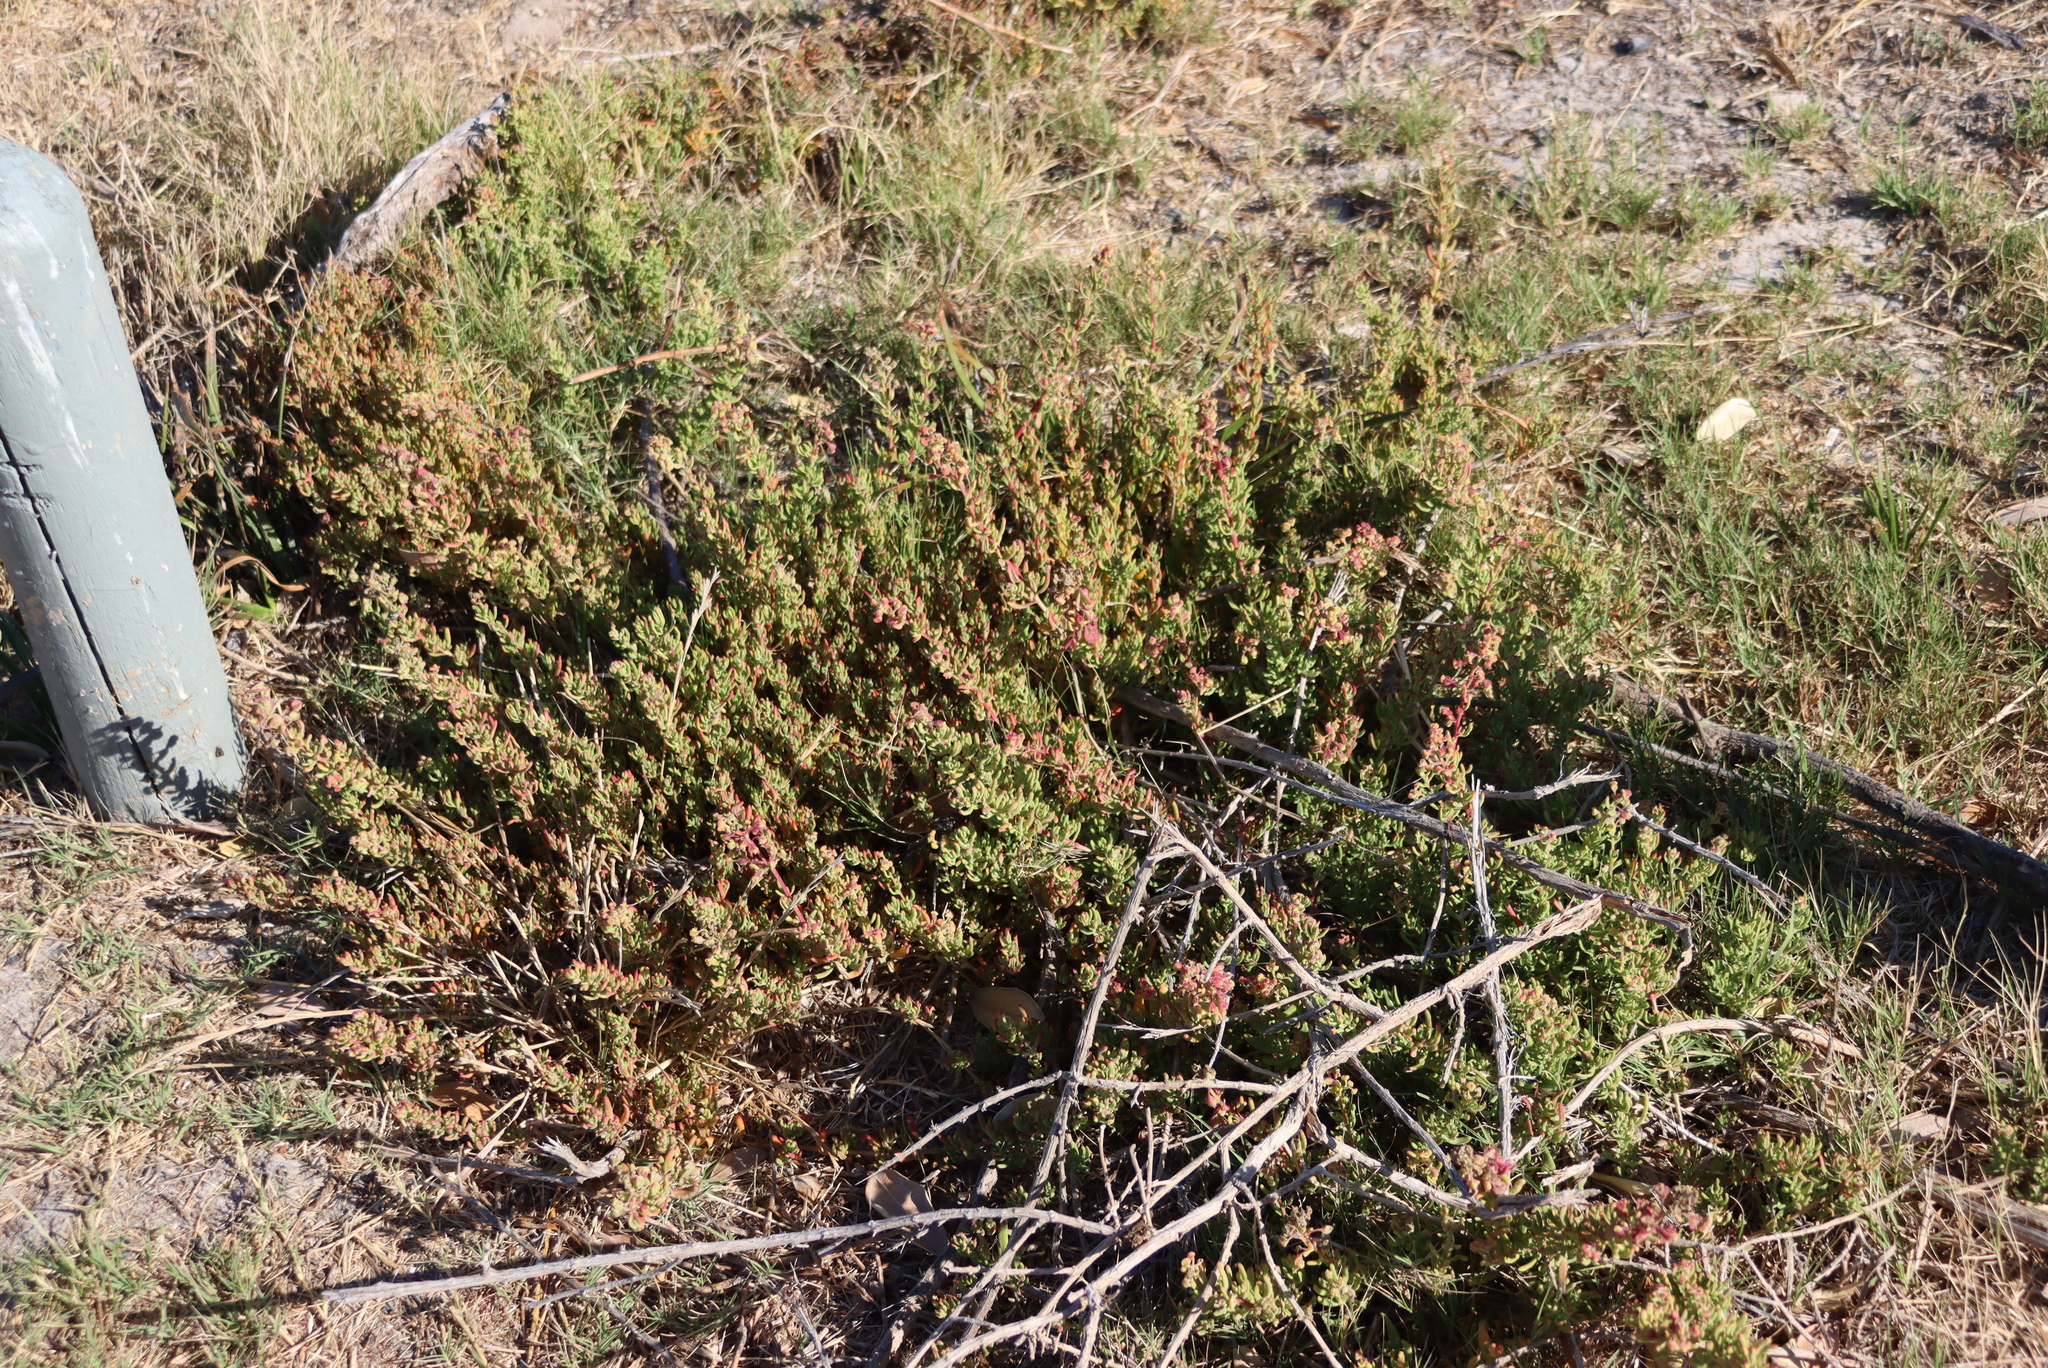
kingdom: Plantae
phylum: Tracheophyta
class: Magnoliopsida
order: Caryophyllales
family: Aizoaceae
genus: Tetragonia
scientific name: Tetragonia fruticosa
